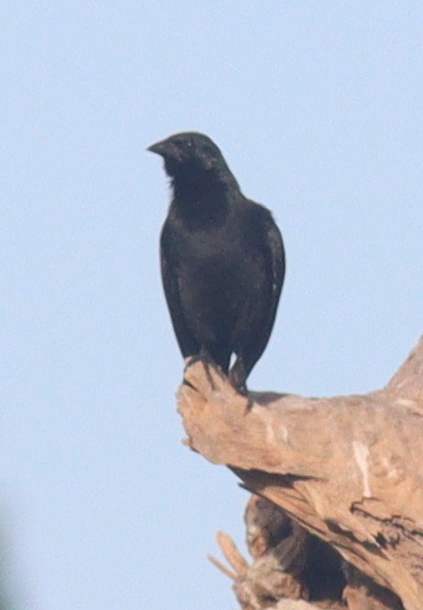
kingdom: Animalia
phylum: Chordata
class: Aves
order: Passeriformes
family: Icteridae
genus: Gnorimopsar
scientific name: Gnorimopsar chopi
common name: Chopi blackbird
